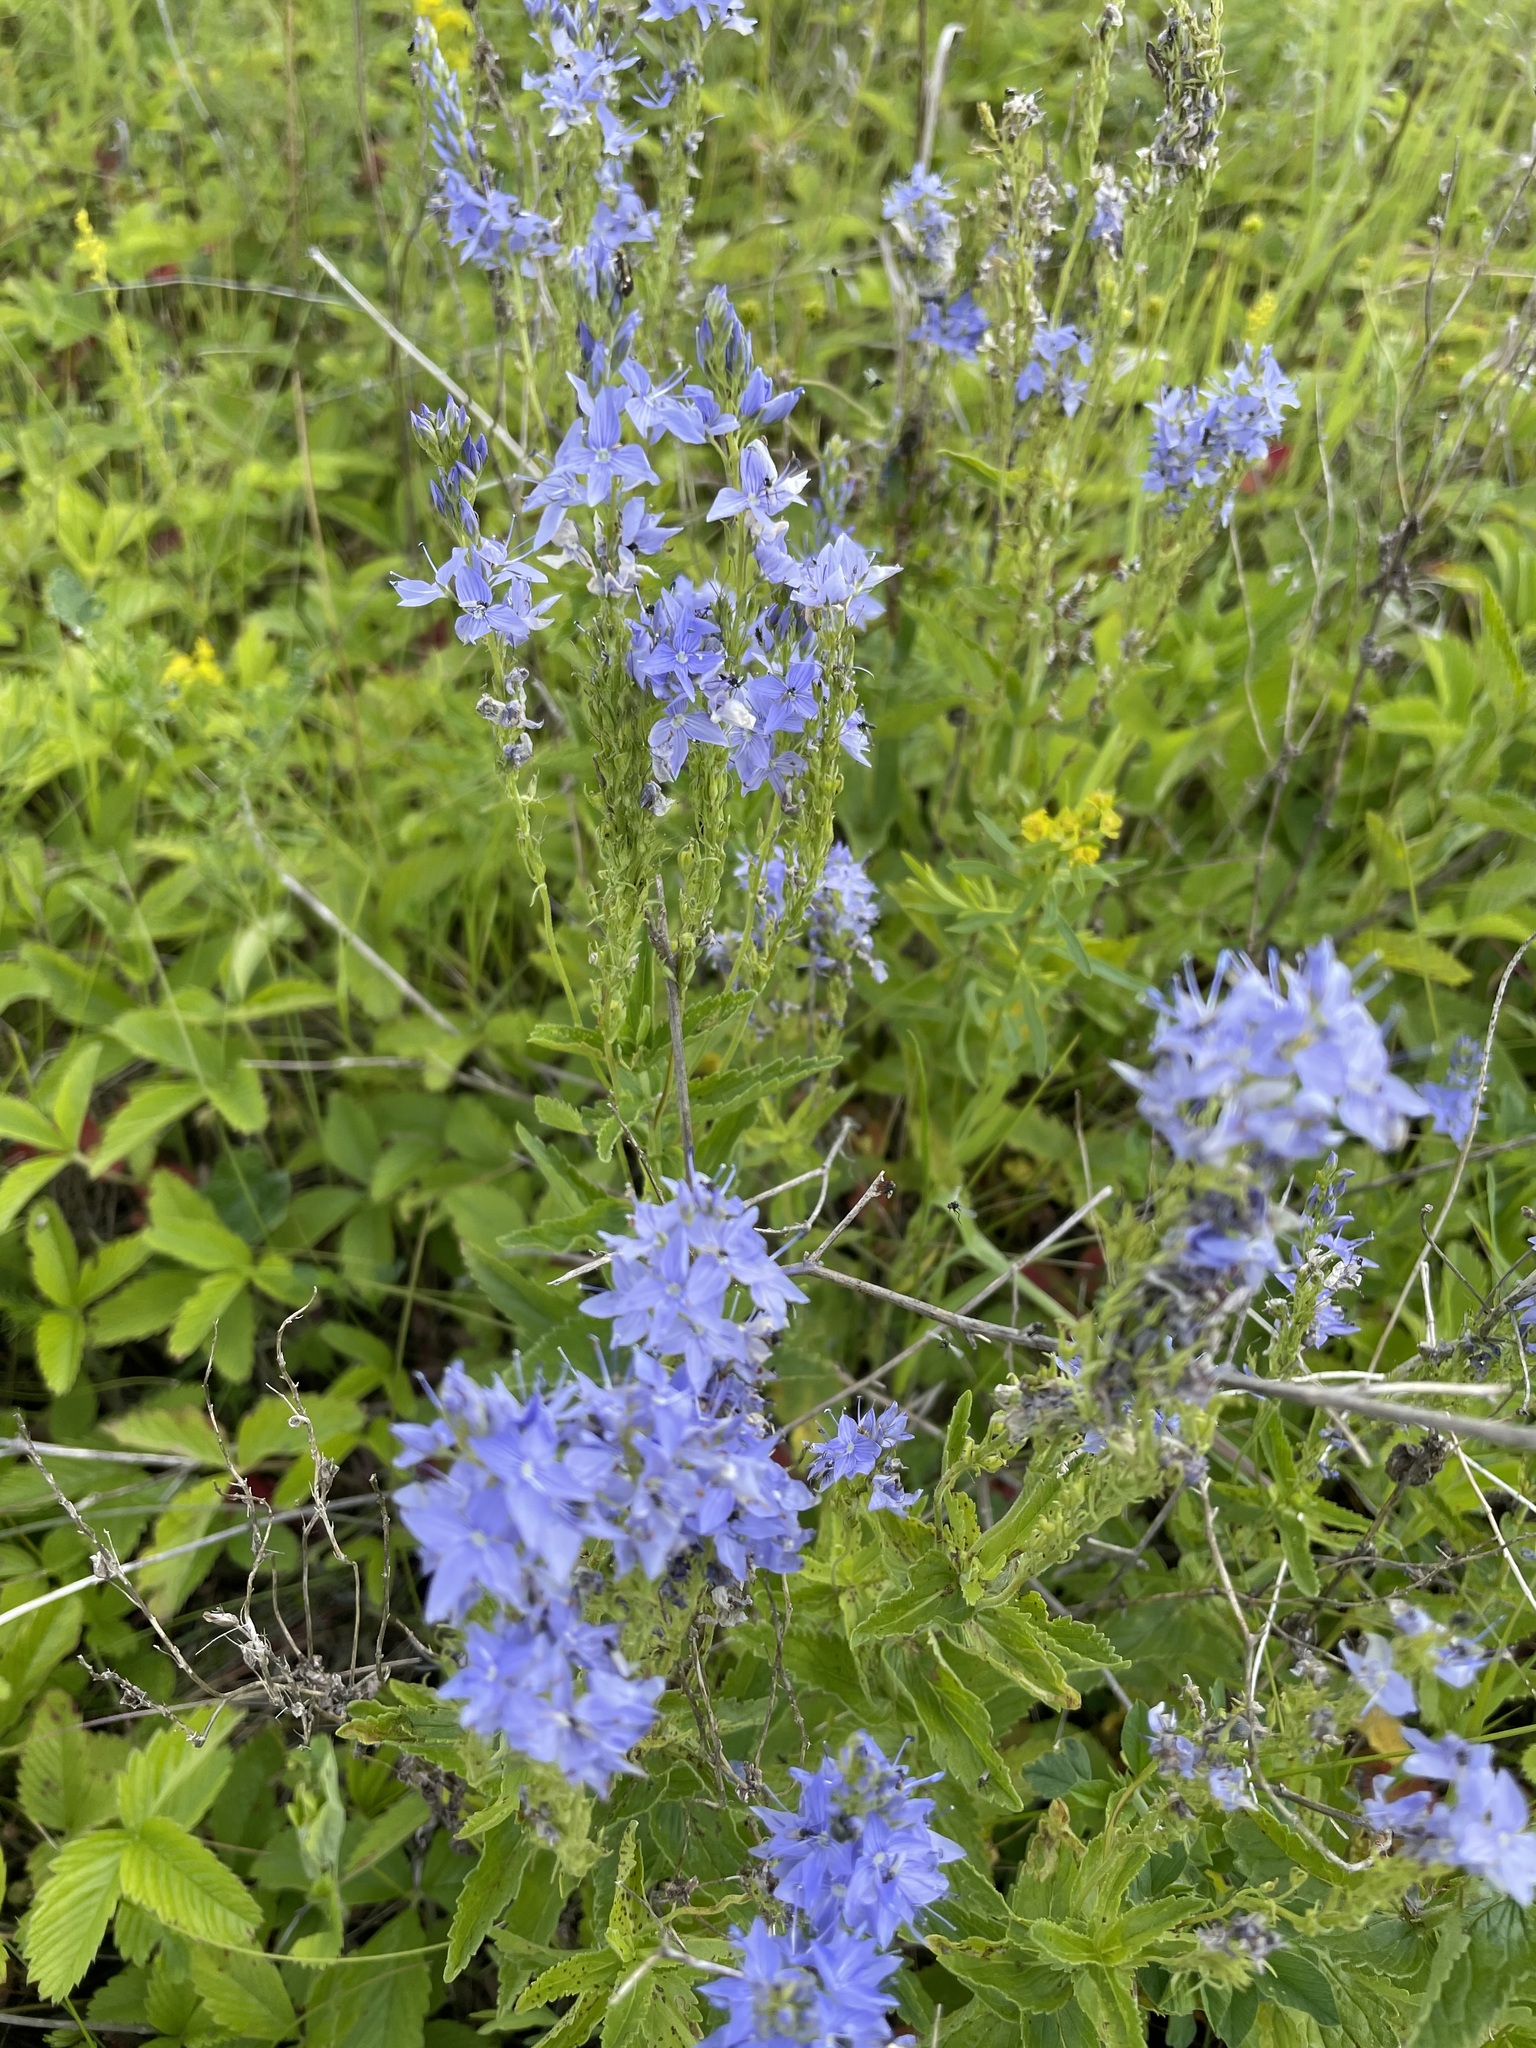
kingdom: Plantae
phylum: Tracheophyta
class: Magnoliopsida
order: Lamiales
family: Plantaginaceae
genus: Veronica
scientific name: Veronica teucrium
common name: Large speedwell
